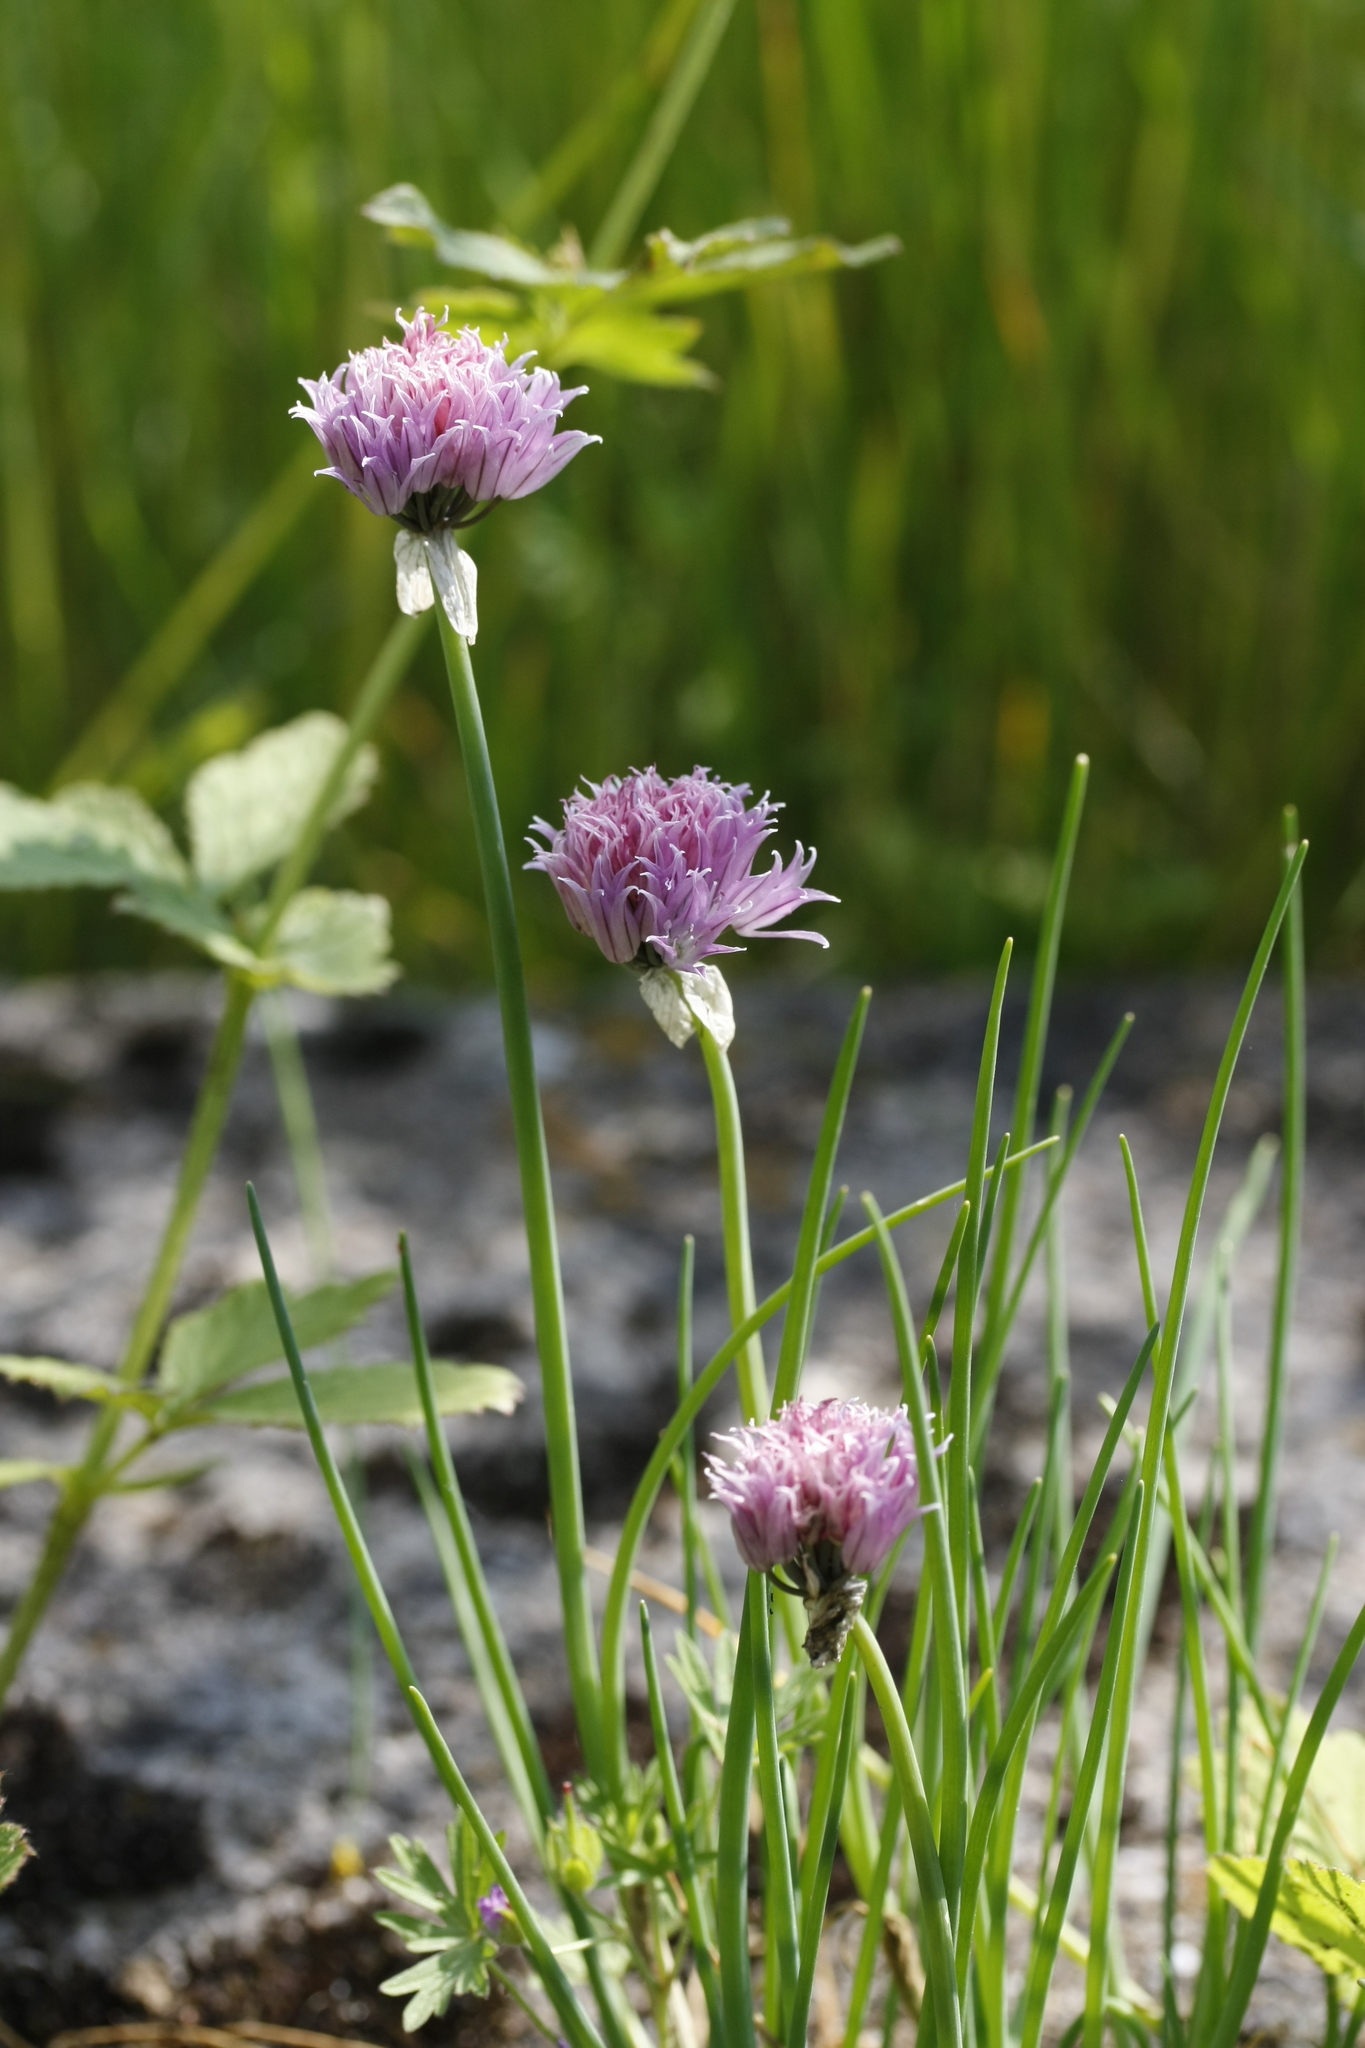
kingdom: Plantae
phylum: Tracheophyta
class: Liliopsida
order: Asparagales
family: Amaryllidaceae
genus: Allium
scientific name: Allium schoenoprasum
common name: Chives
